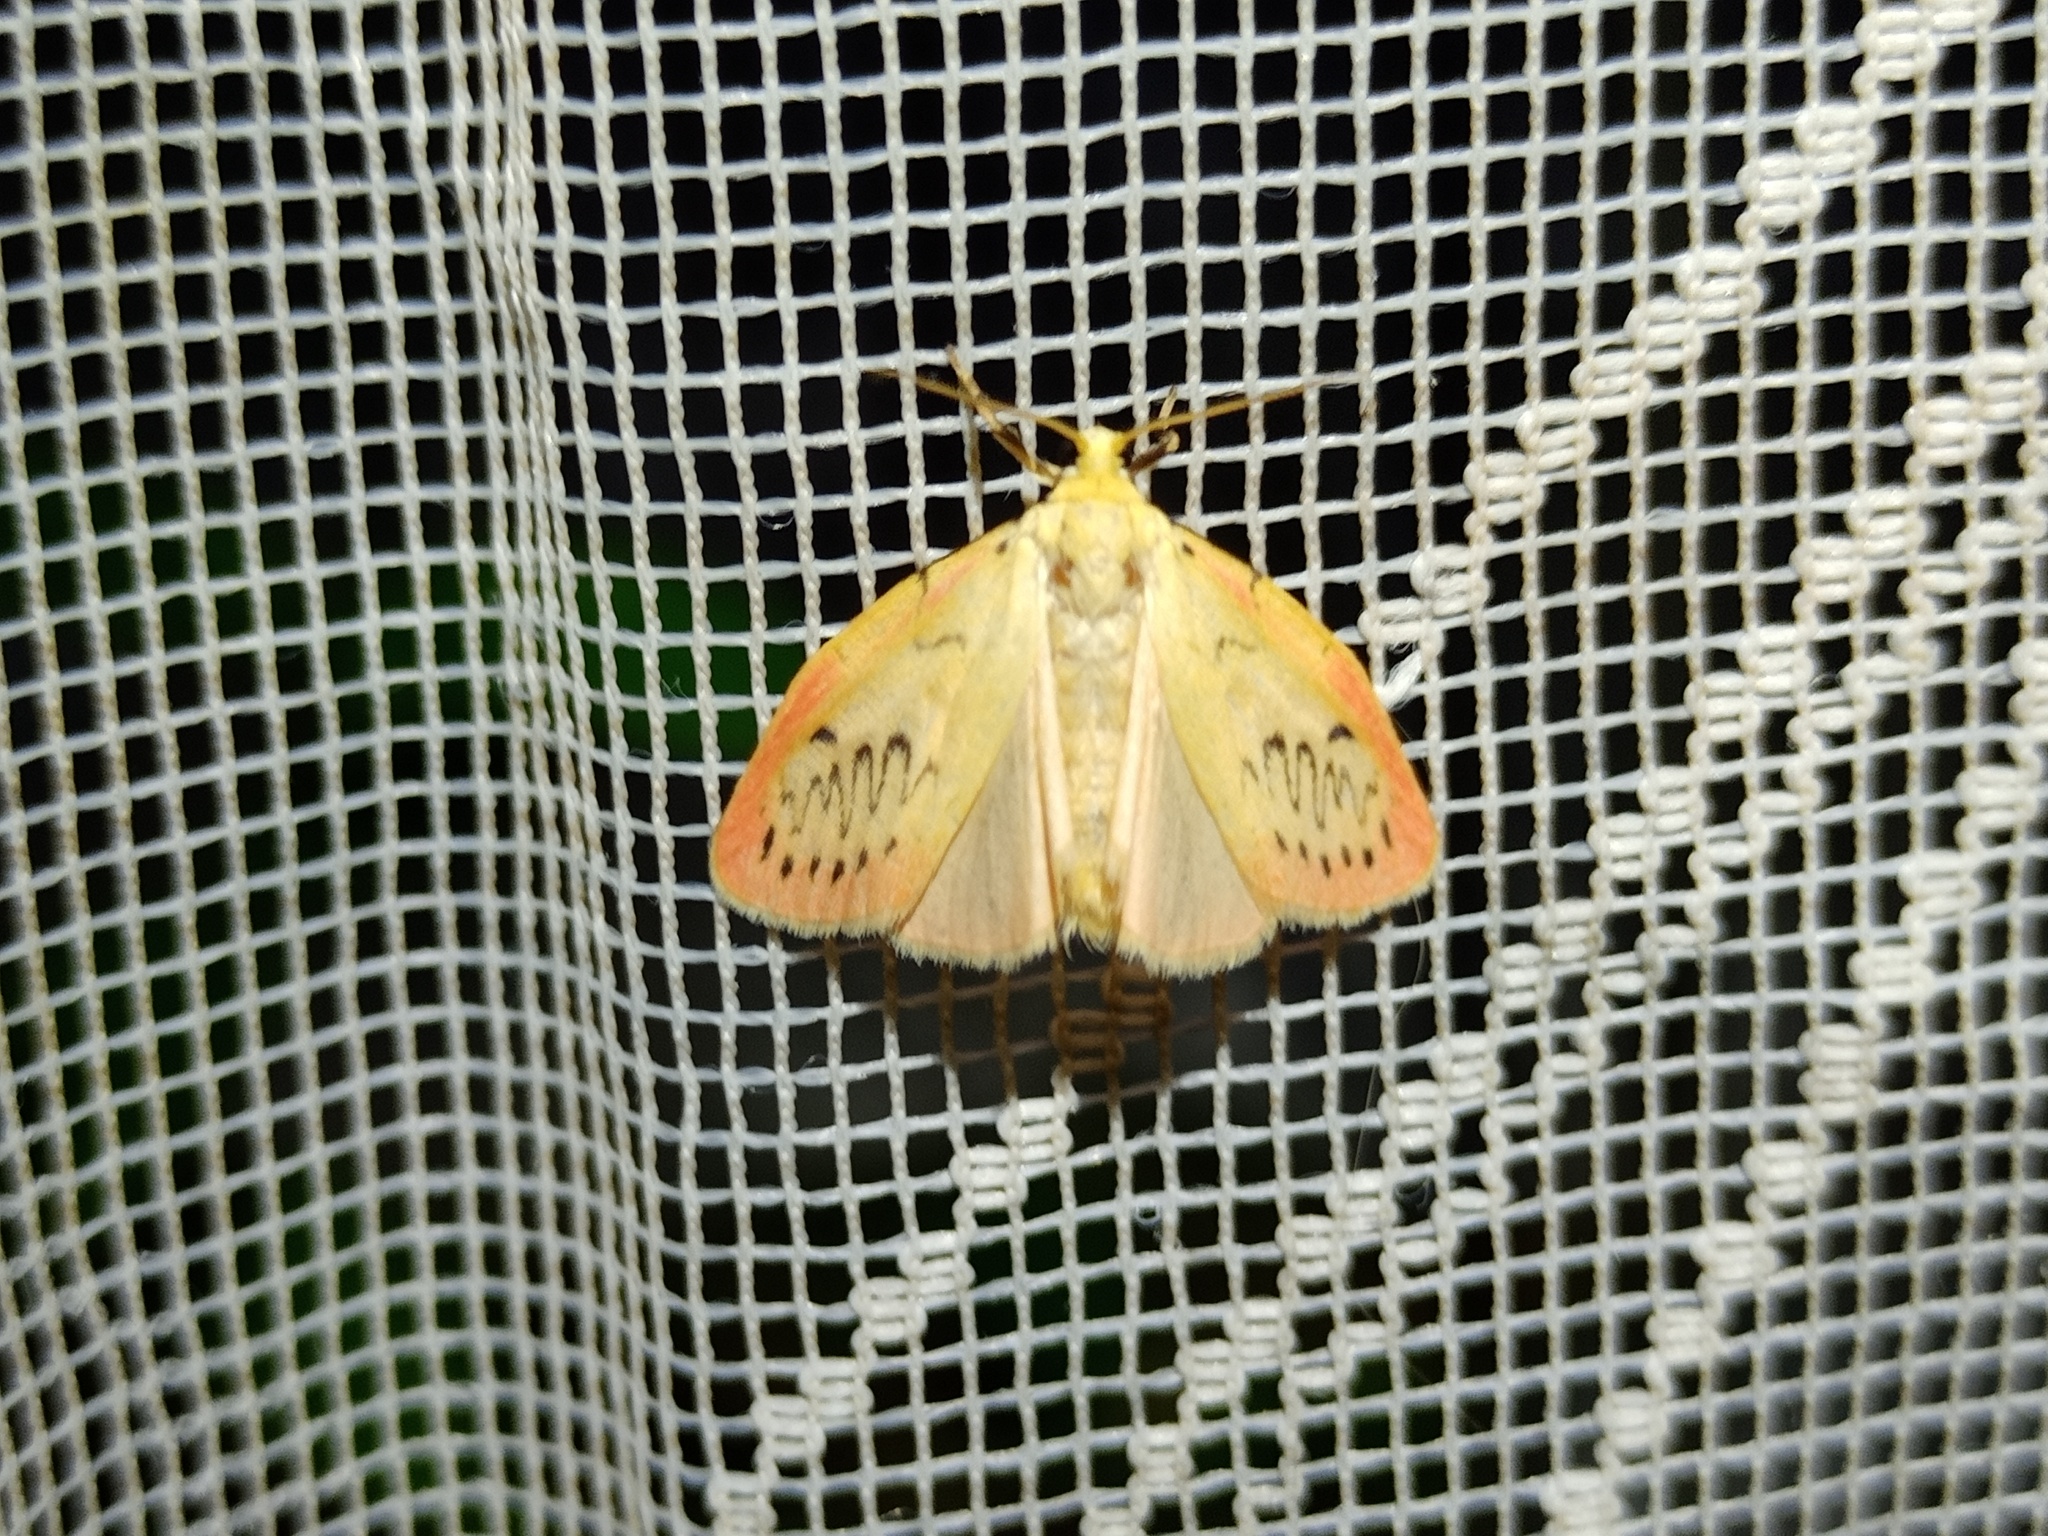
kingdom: Animalia
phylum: Arthropoda
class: Insecta
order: Lepidoptera
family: Erebidae
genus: Miltochrista
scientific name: Miltochrista miniata
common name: Rosy footman
